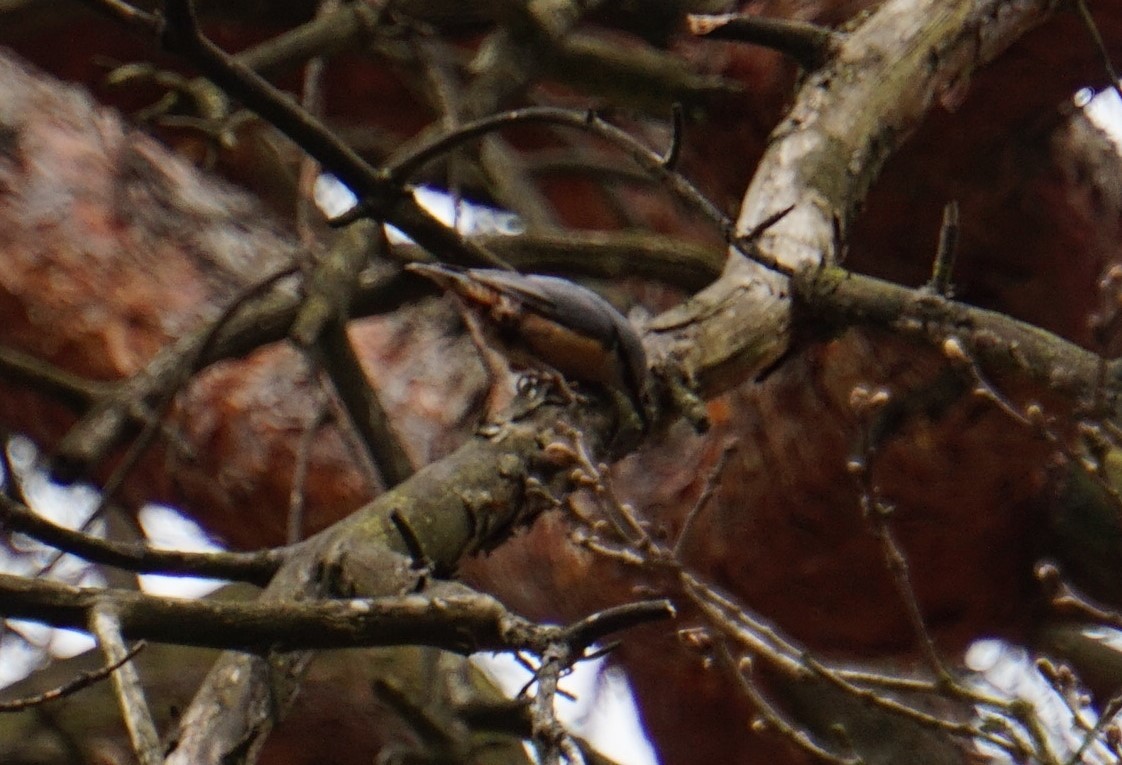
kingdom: Animalia
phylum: Chordata
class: Aves
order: Passeriformes
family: Sittidae
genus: Sitta
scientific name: Sitta europaea
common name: Eurasian nuthatch
